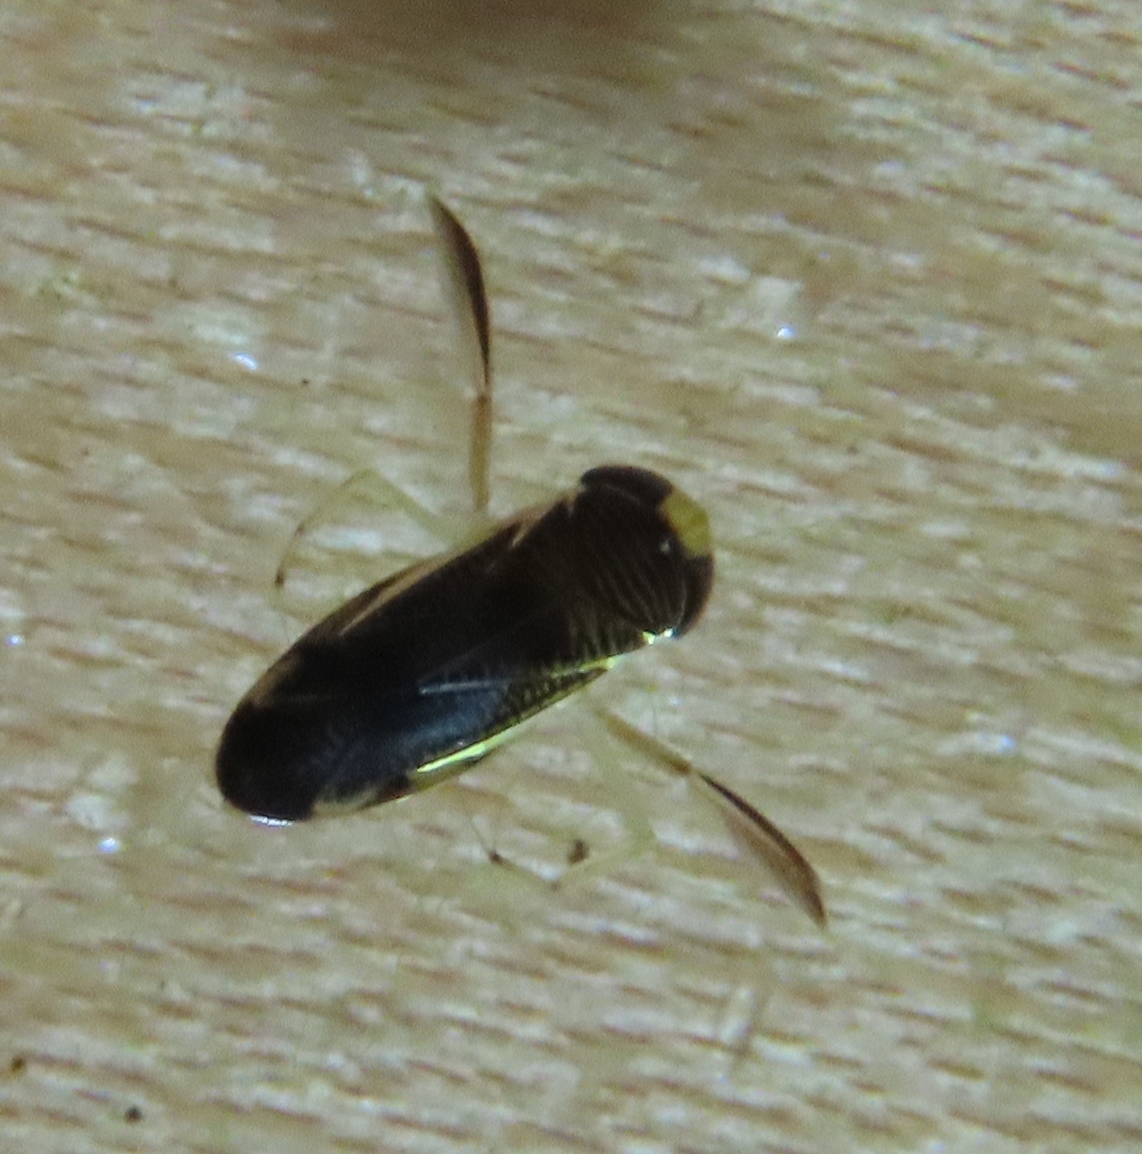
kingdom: Animalia
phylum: Arthropoda
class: Insecta
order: Hemiptera
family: Corixidae
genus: Sigara
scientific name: Sigara
